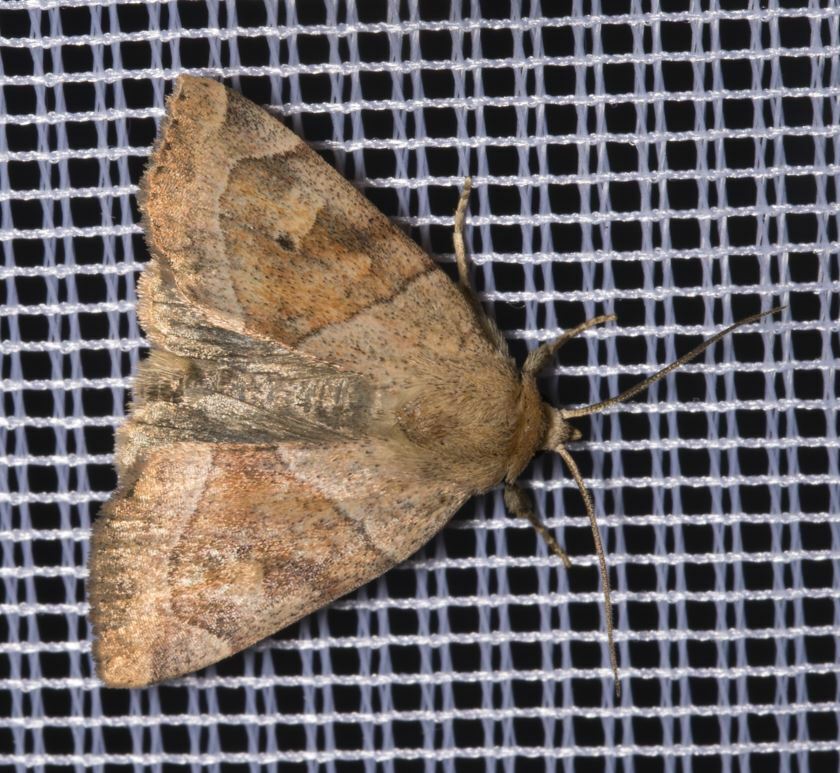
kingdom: Animalia
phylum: Arthropoda
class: Insecta
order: Lepidoptera
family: Noctuidae
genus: Cosmia
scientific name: Cosmia trapezina
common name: Dun-bar
